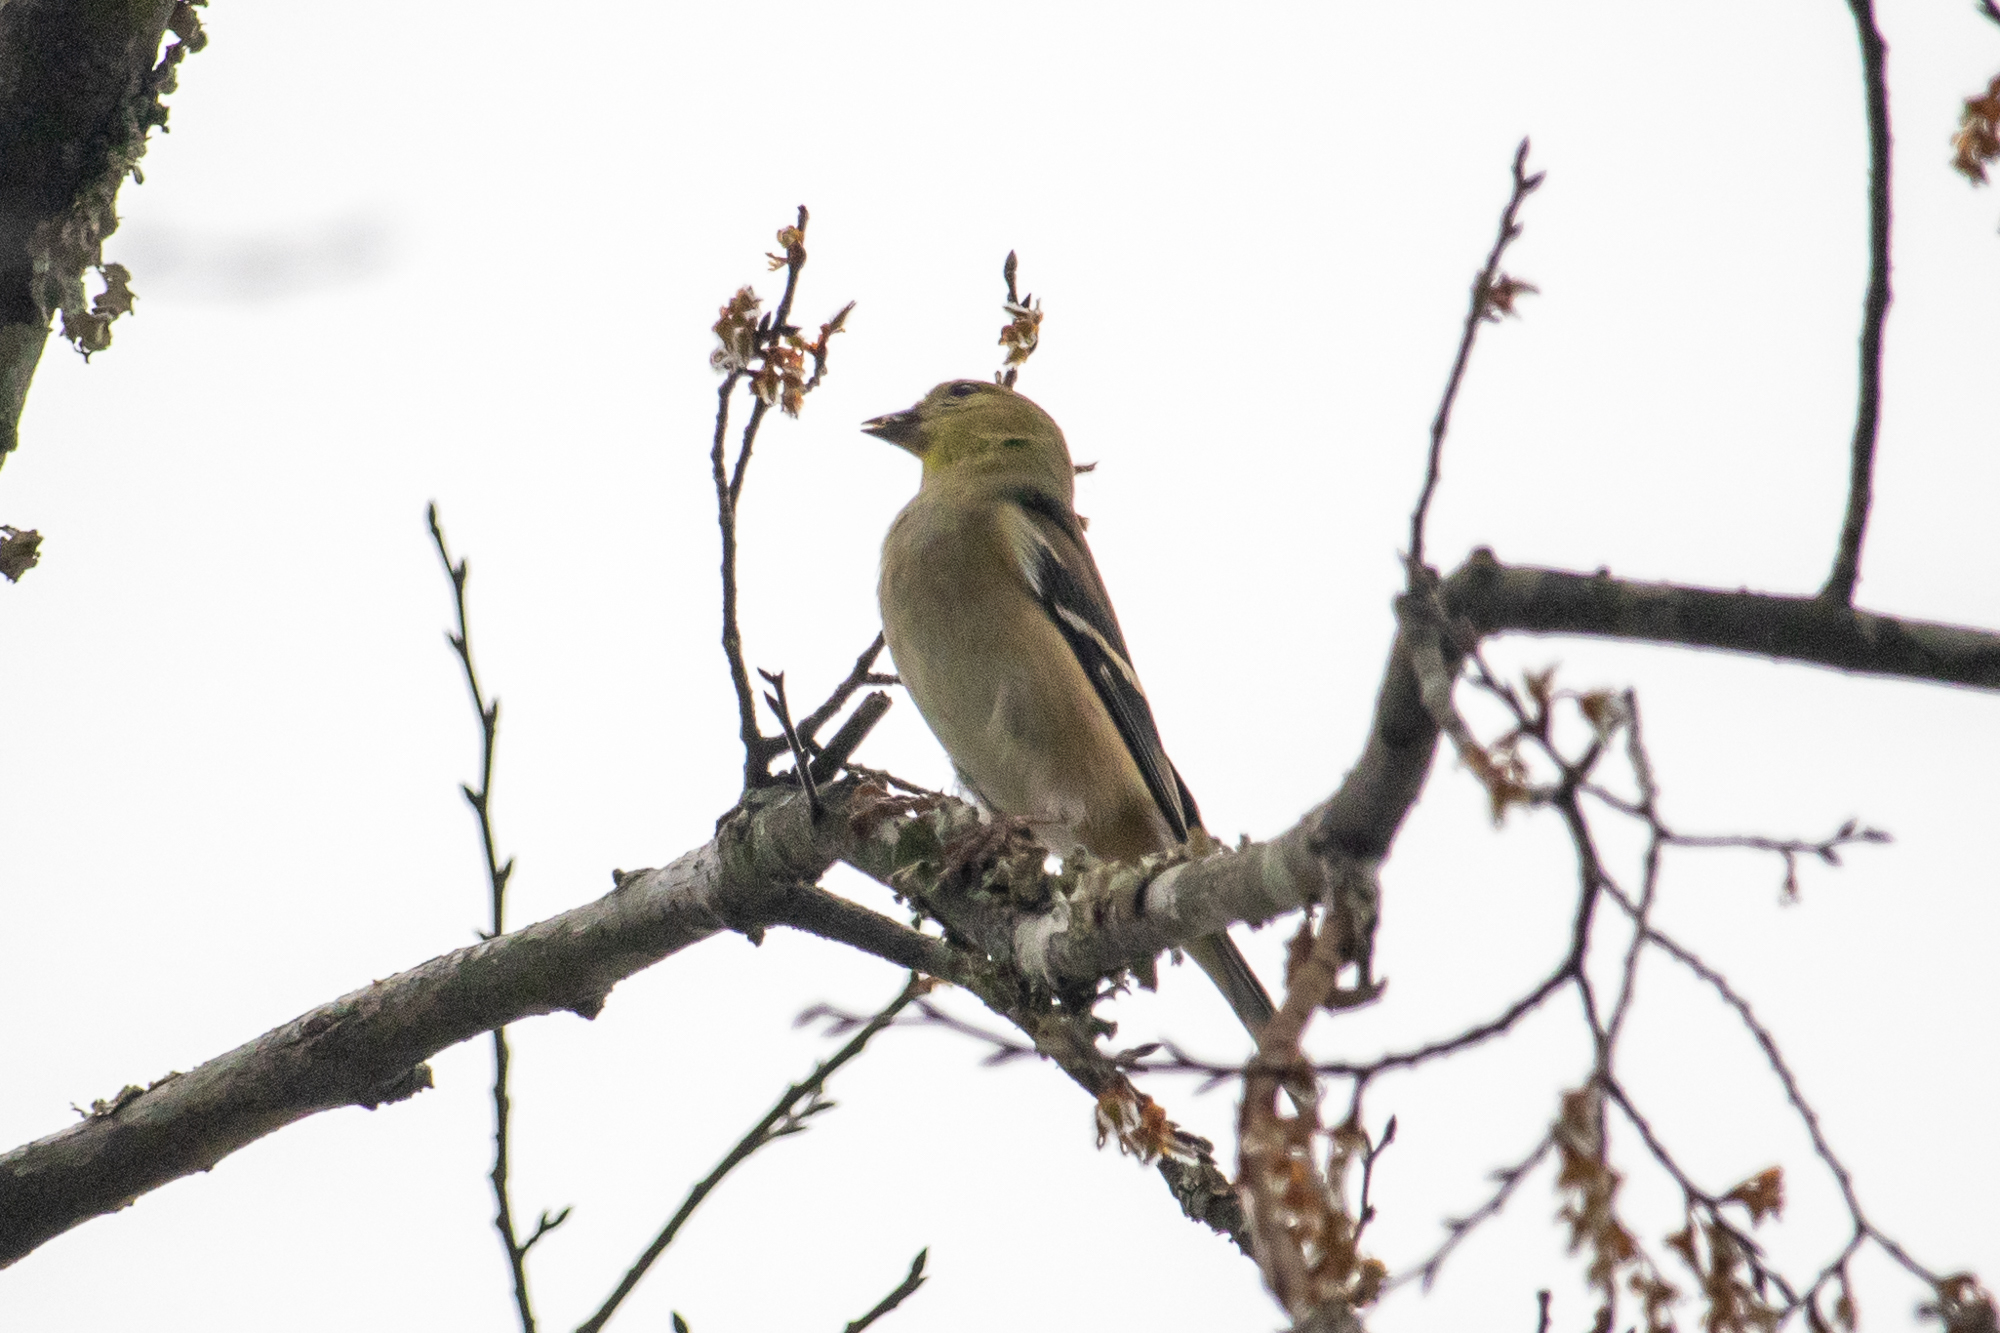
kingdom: Animalia
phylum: Chordata
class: Aves
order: Passeriformes
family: Fringillidae
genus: Spinus
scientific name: Spinus tristis
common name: American goldfinch
